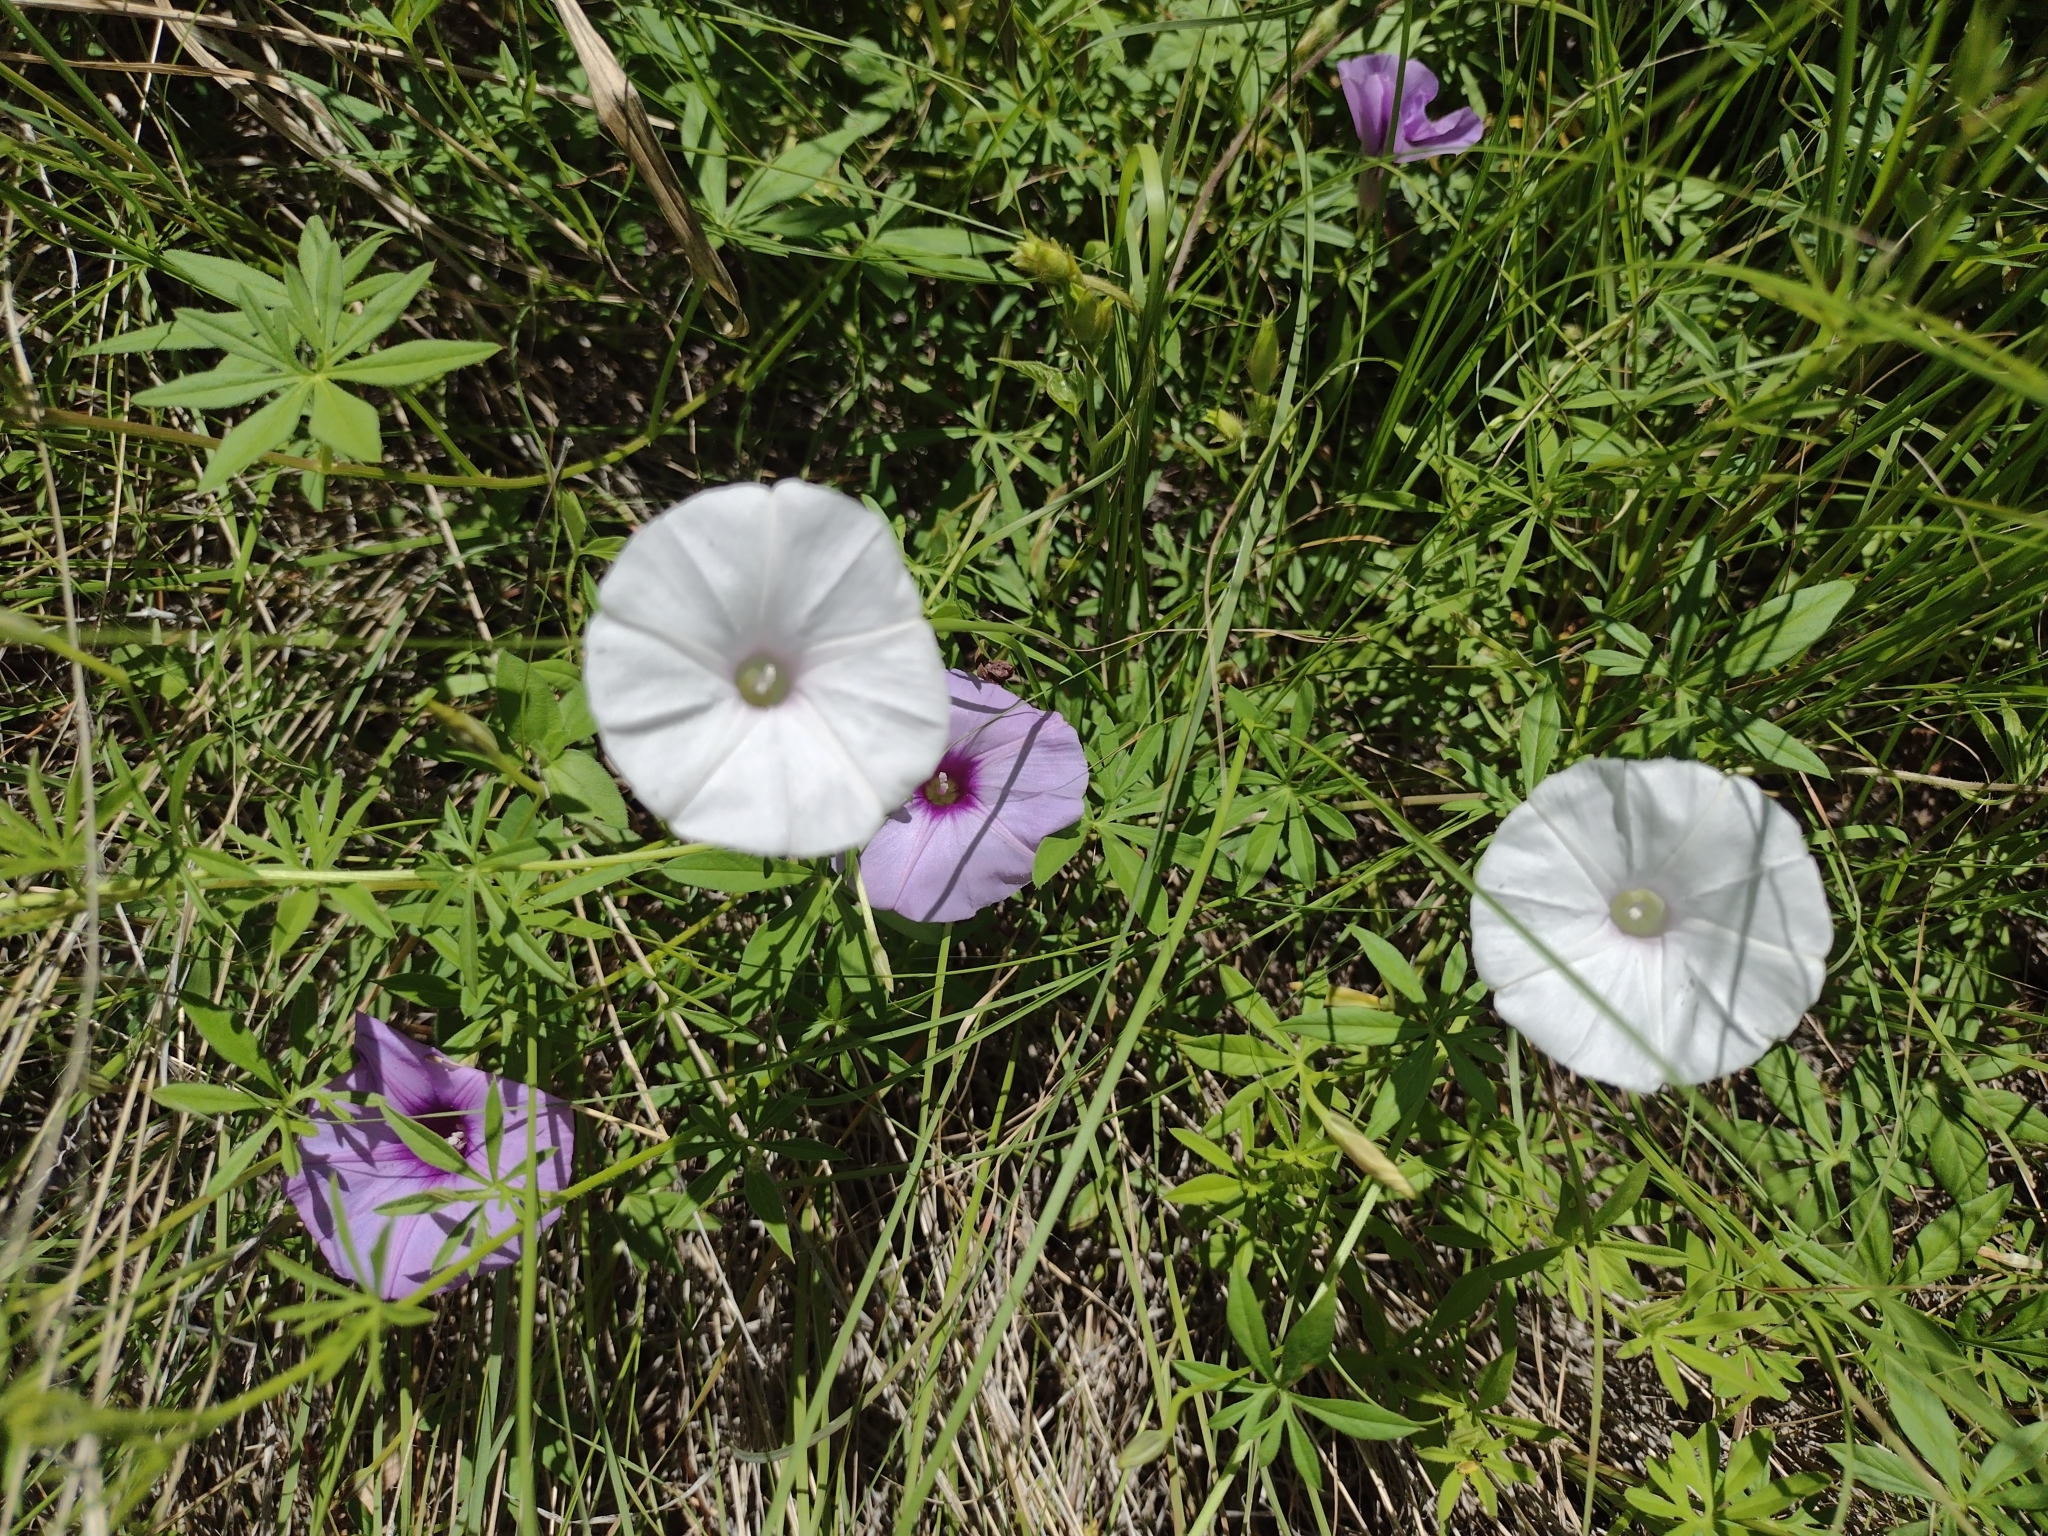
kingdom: Plantae
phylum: Tracheophyta
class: Magnoliopsida
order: Solanales
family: Convolvulaceae
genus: Ipomoea
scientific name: Ipomoea ternifolia
